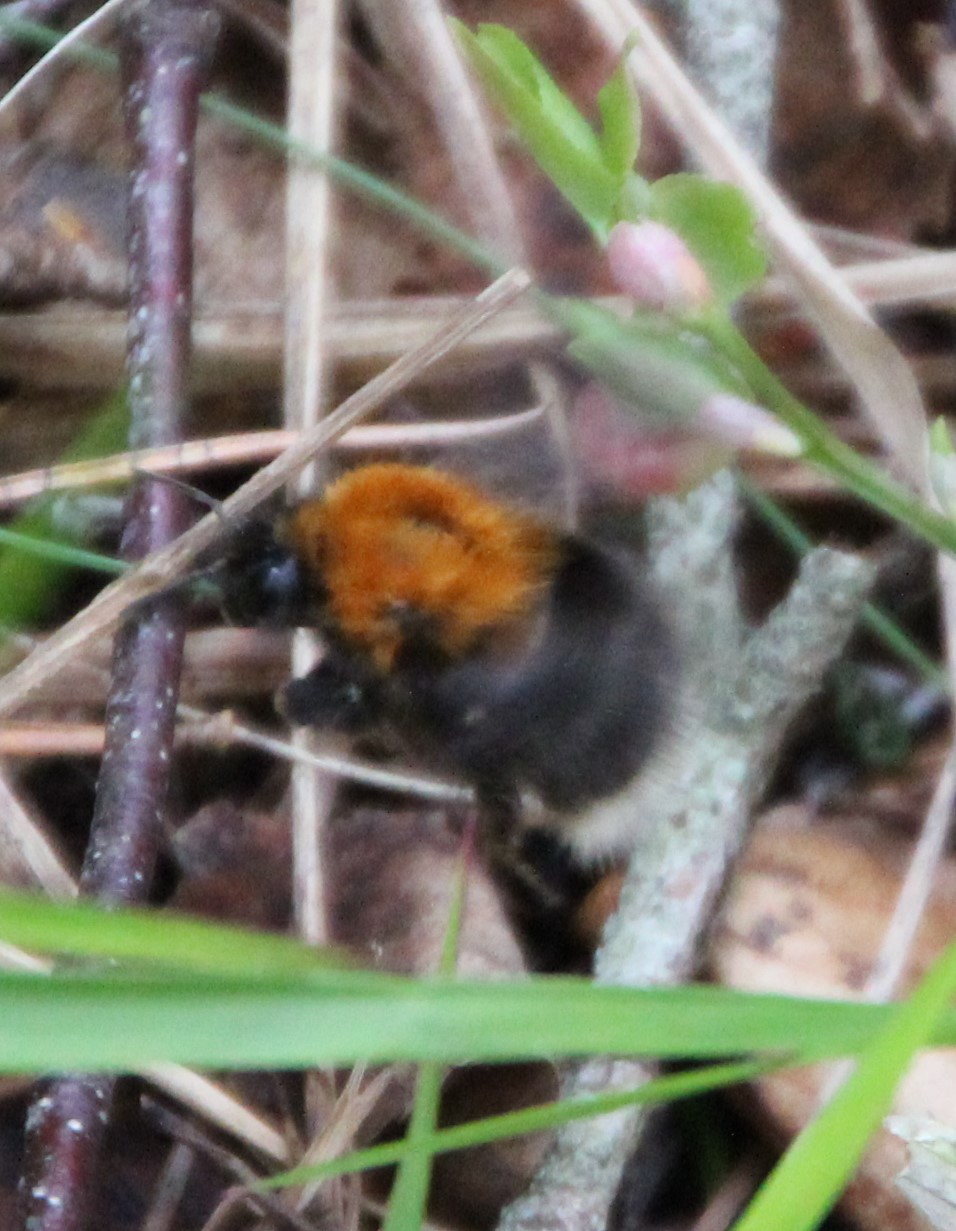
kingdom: Animalia
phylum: Arthropoda
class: Insecta
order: Hymenoptera
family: Apidae
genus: Bombus
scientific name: Bombus hypnorum
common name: New garden bumblebee
